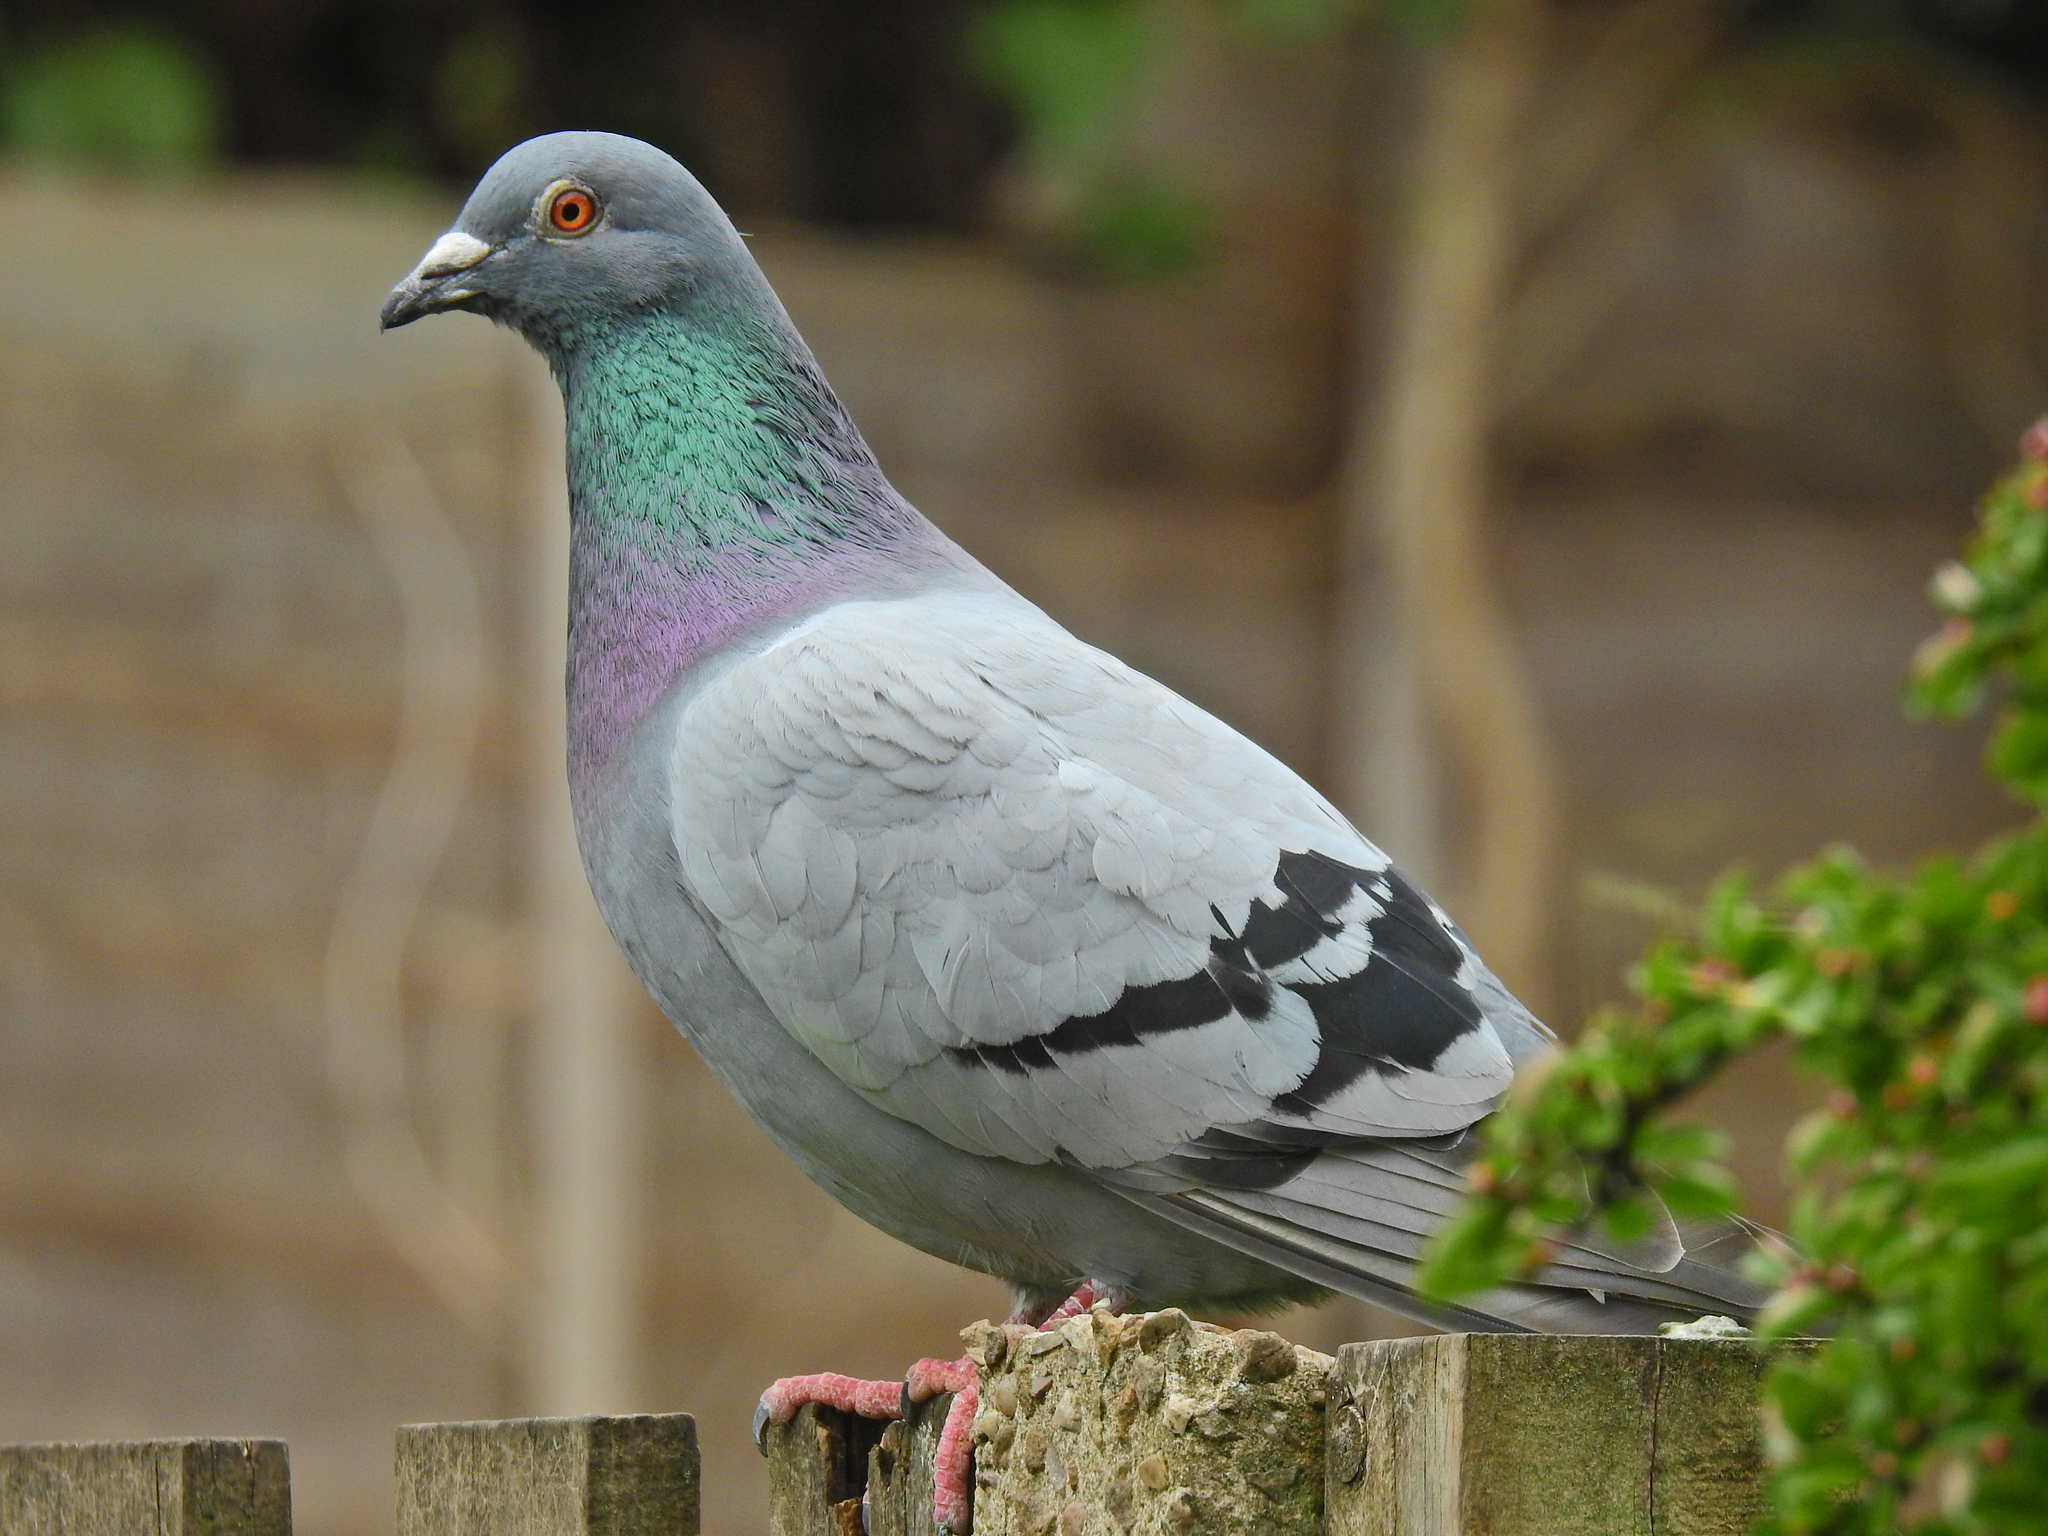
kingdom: Animalia
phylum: Chordata
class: Aves
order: Columbiformes
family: Columbidae
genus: Columba
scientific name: Columba livia
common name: Rock pigeon
